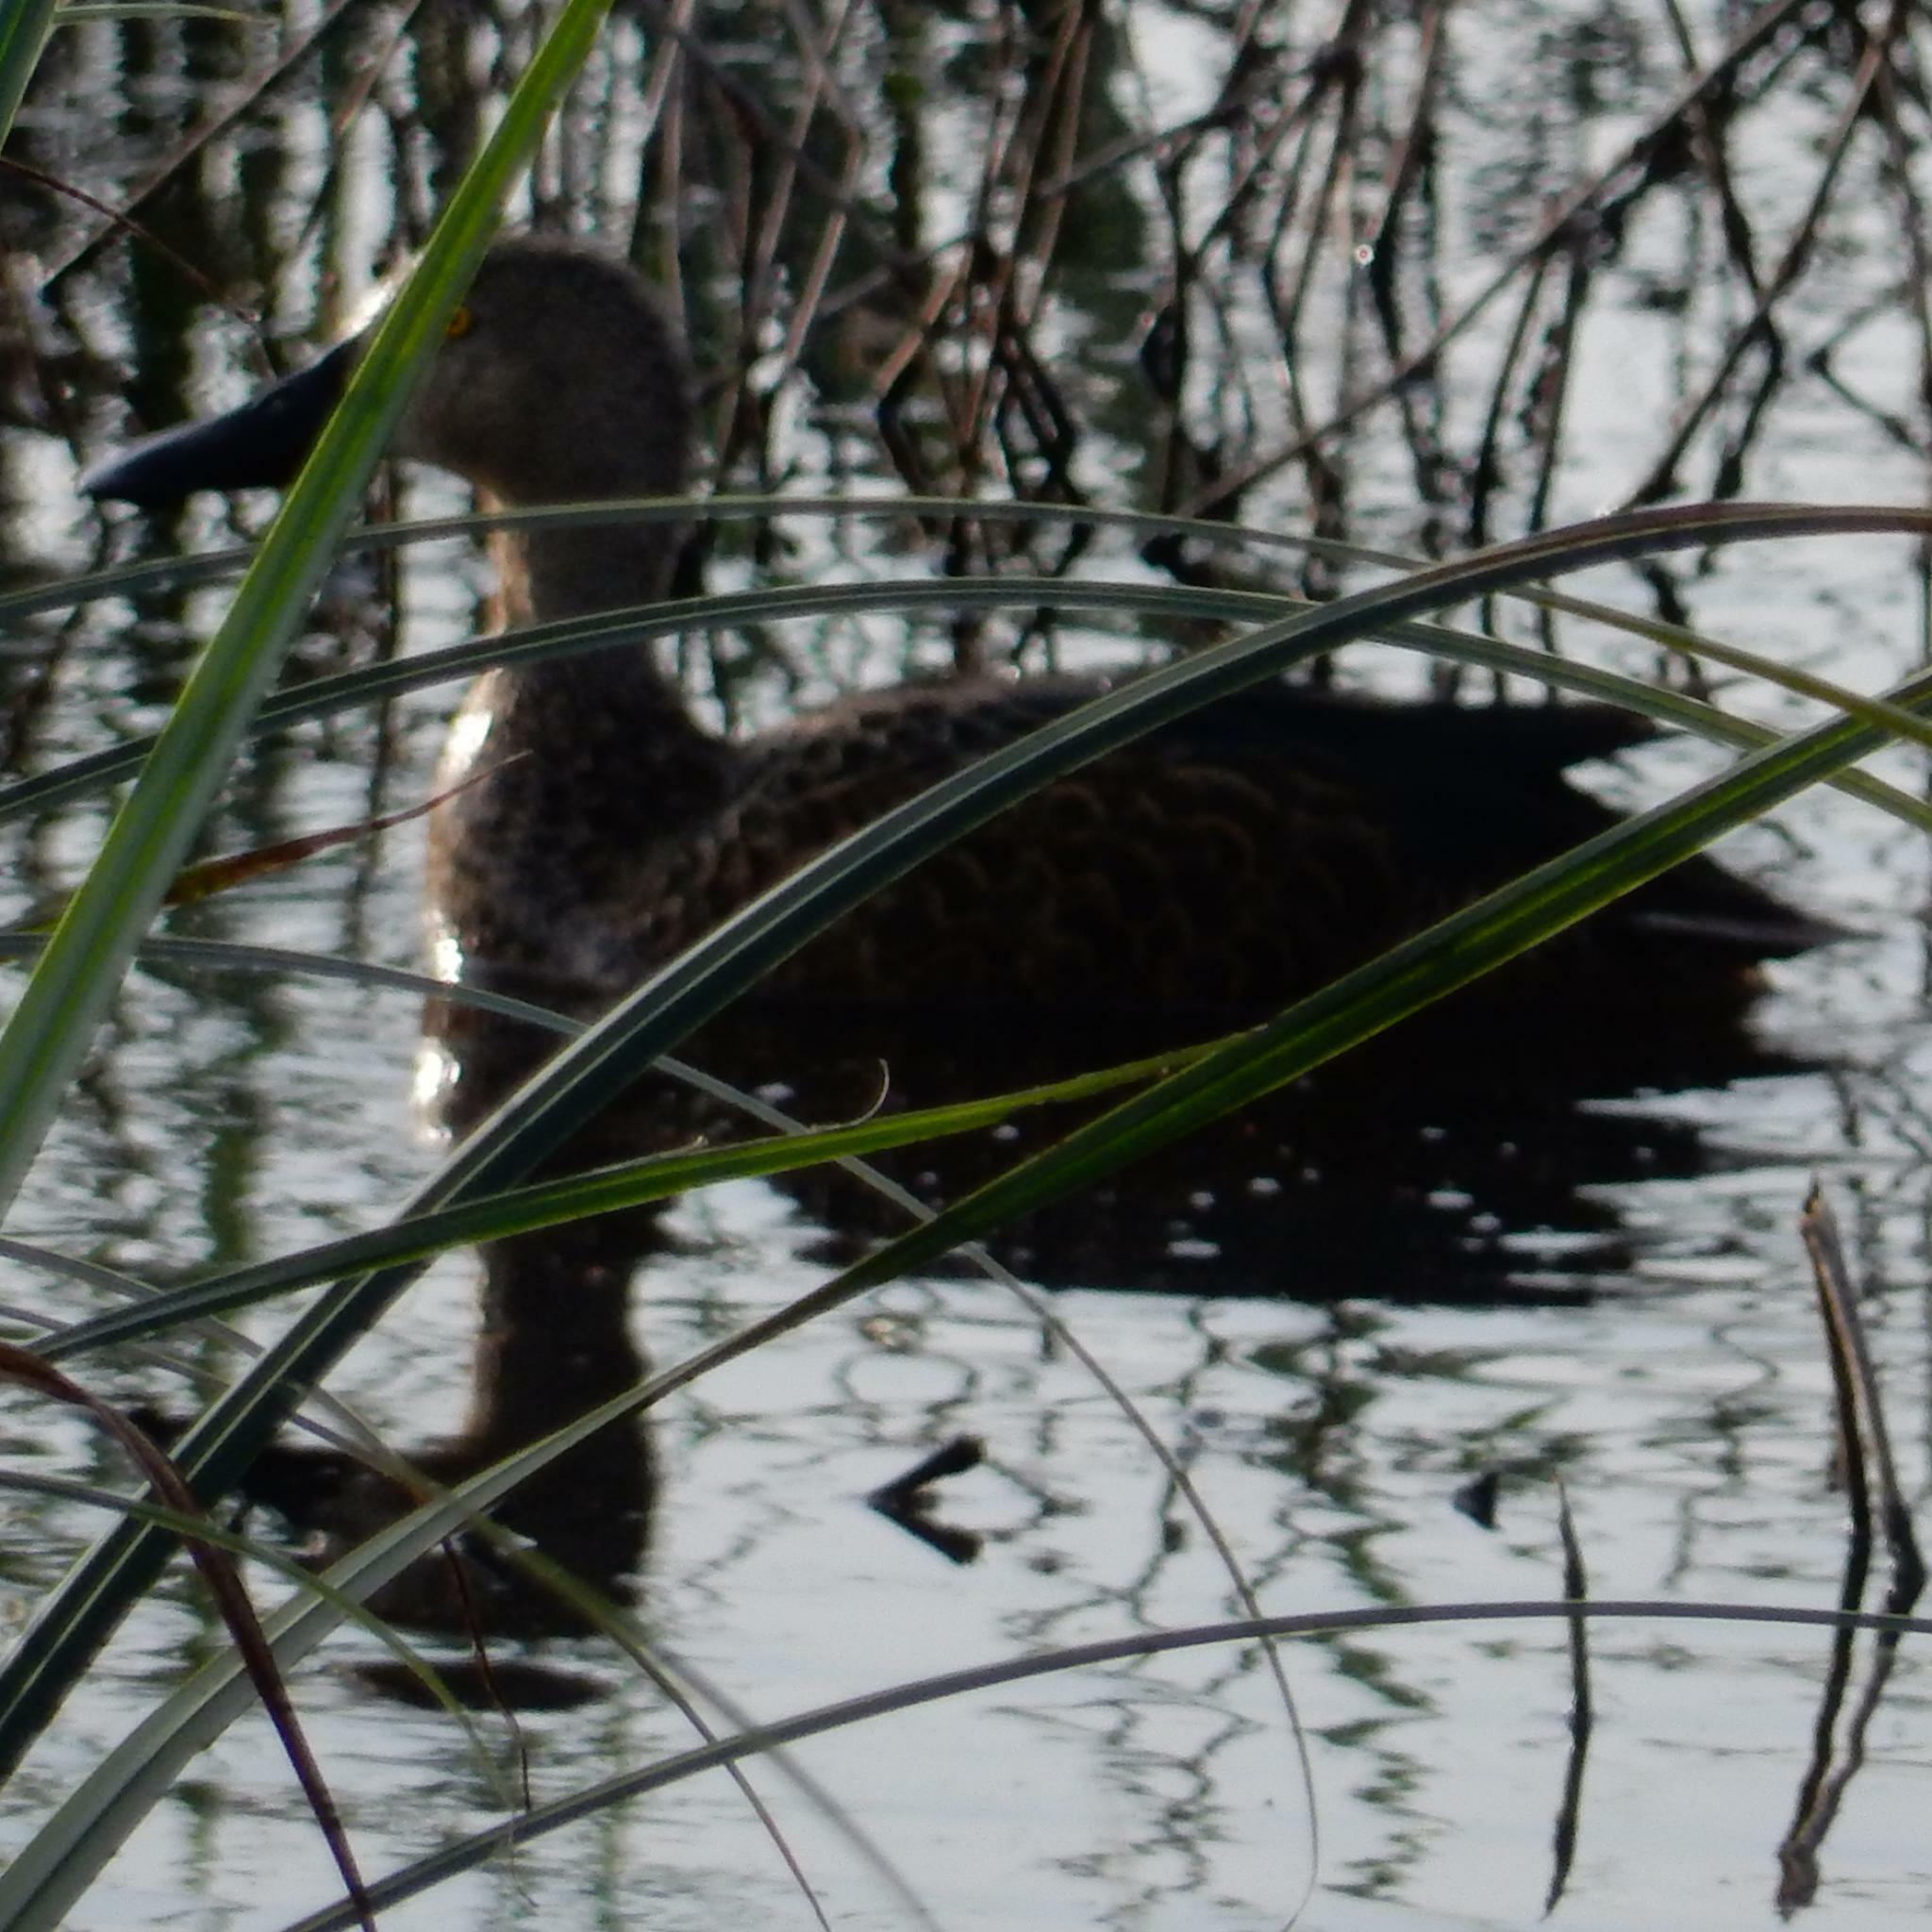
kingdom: Animalia
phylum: Chordata
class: Aves
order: Anseriformes
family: Anatidae
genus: Spatula
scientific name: Spatula smithii
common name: Cape shoveler
